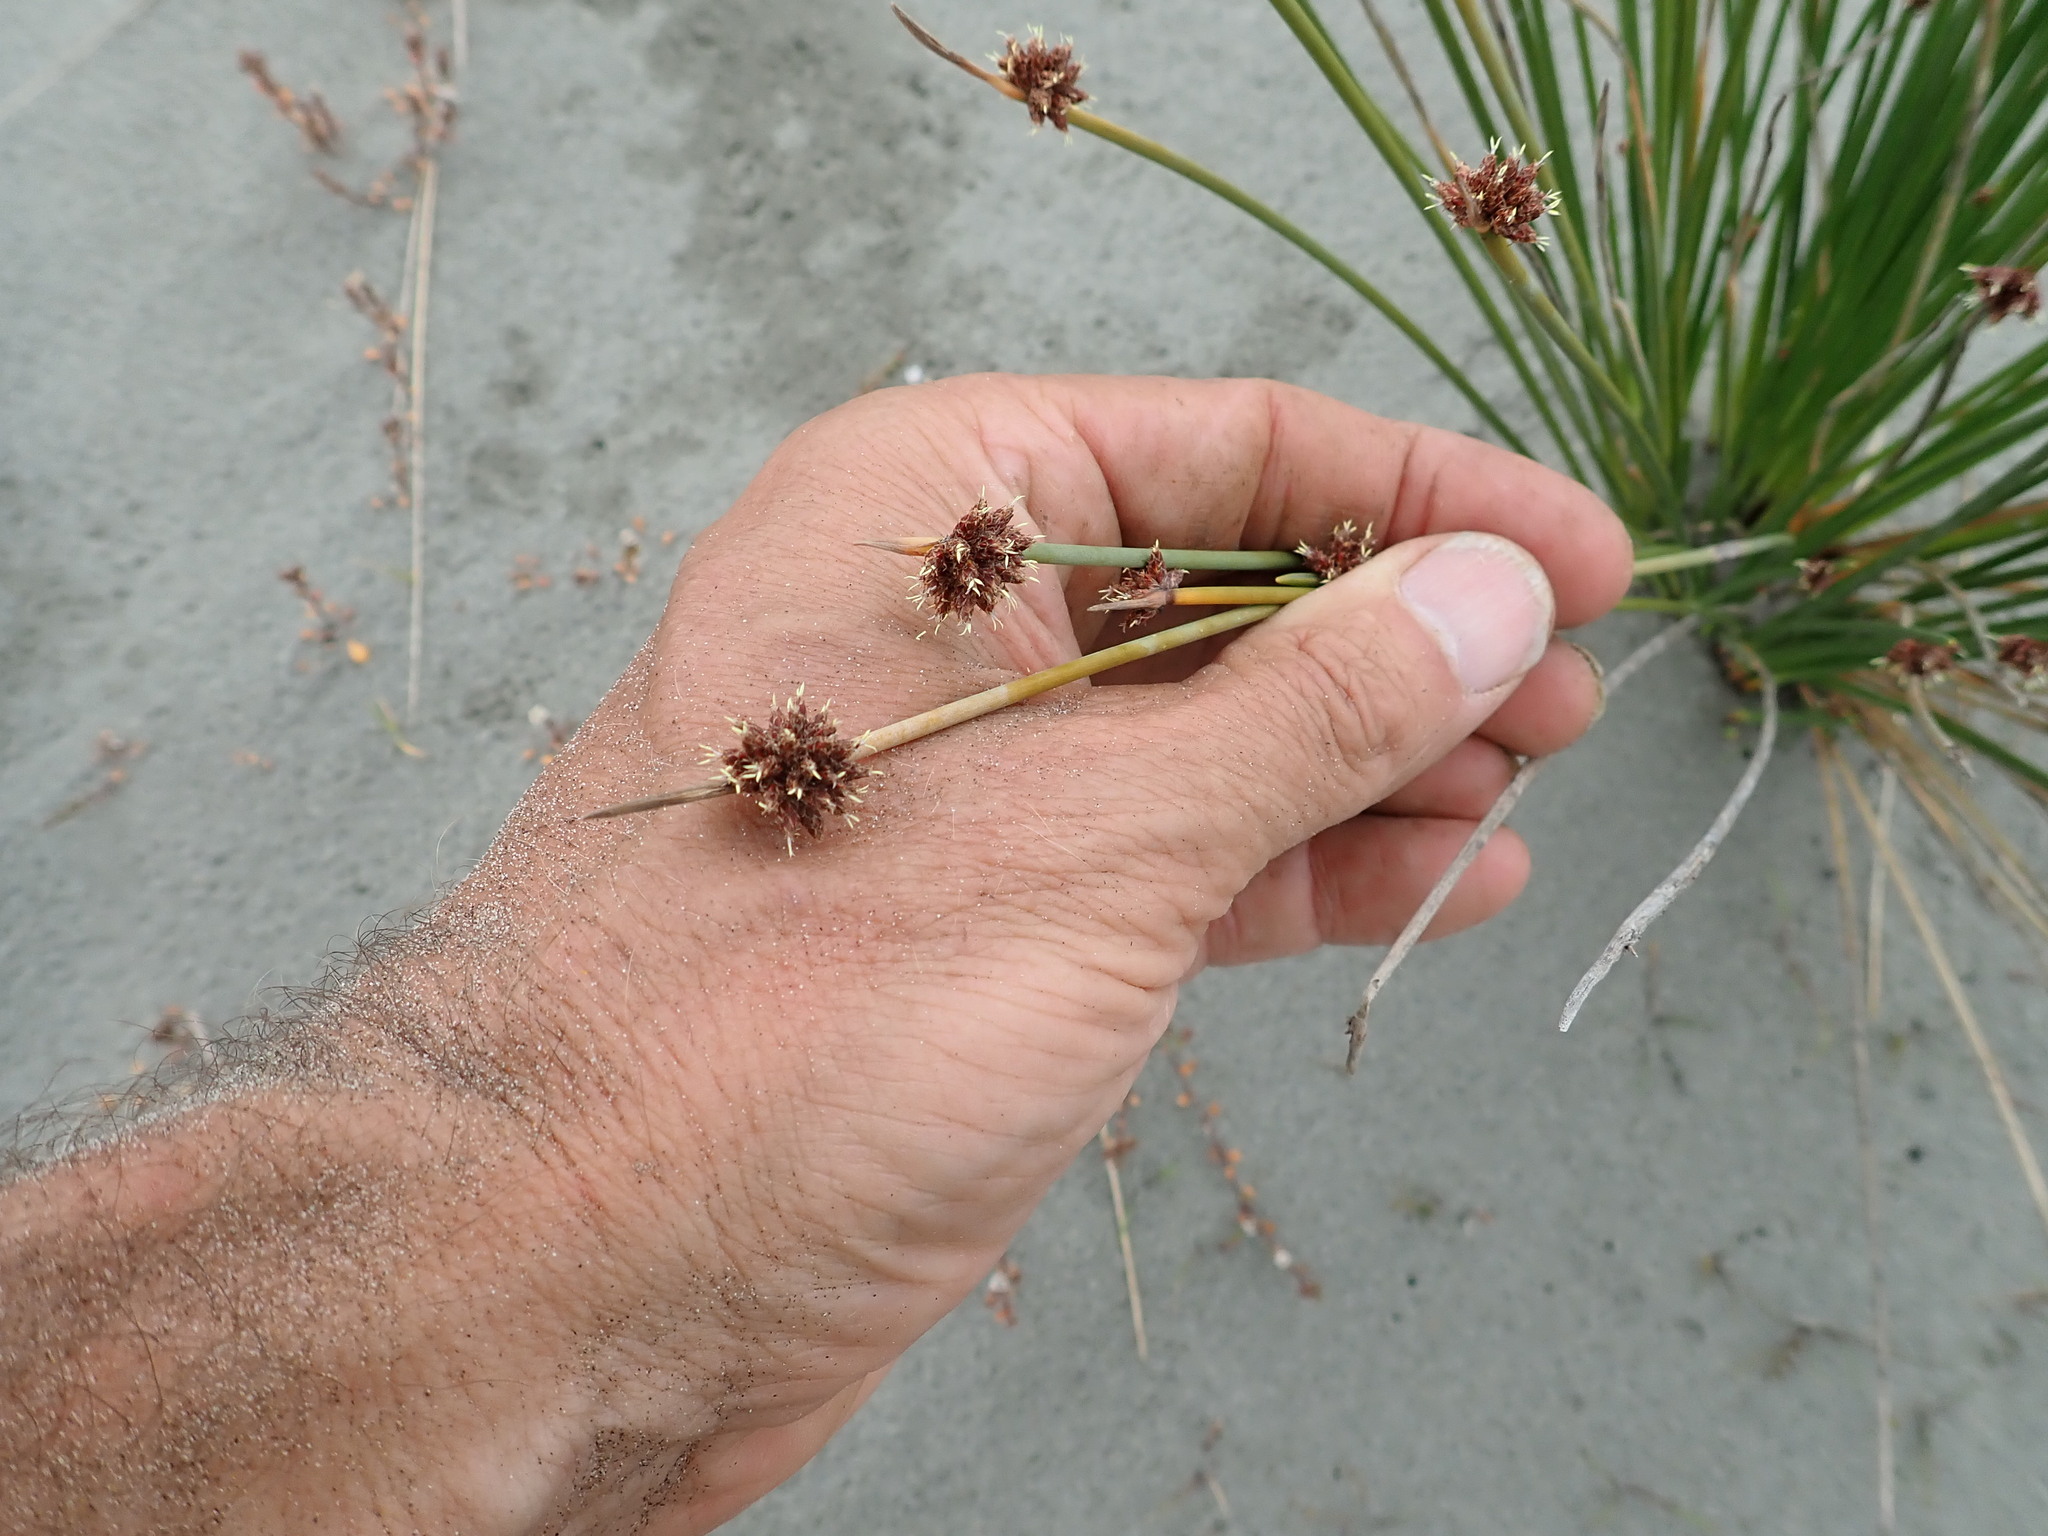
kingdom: Plantae
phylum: Tracheophyta
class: Liliopsida
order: Poales
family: Cyperaceae
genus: Ficinia
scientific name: Ficinia nodosa
